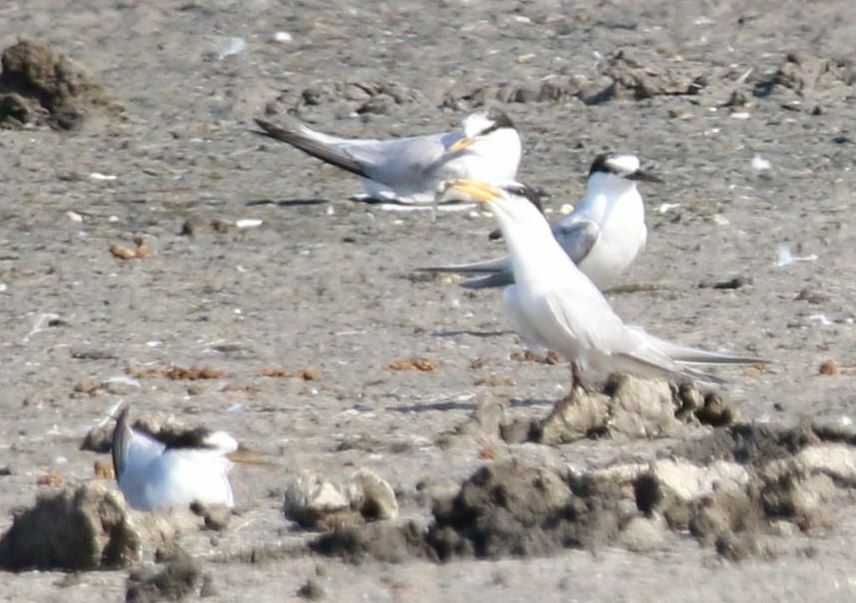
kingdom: Animalia
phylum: Chordata
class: Aves
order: Charadriiformes
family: Laridae
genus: Sternula
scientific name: Sternula albifrons
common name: Little tern
